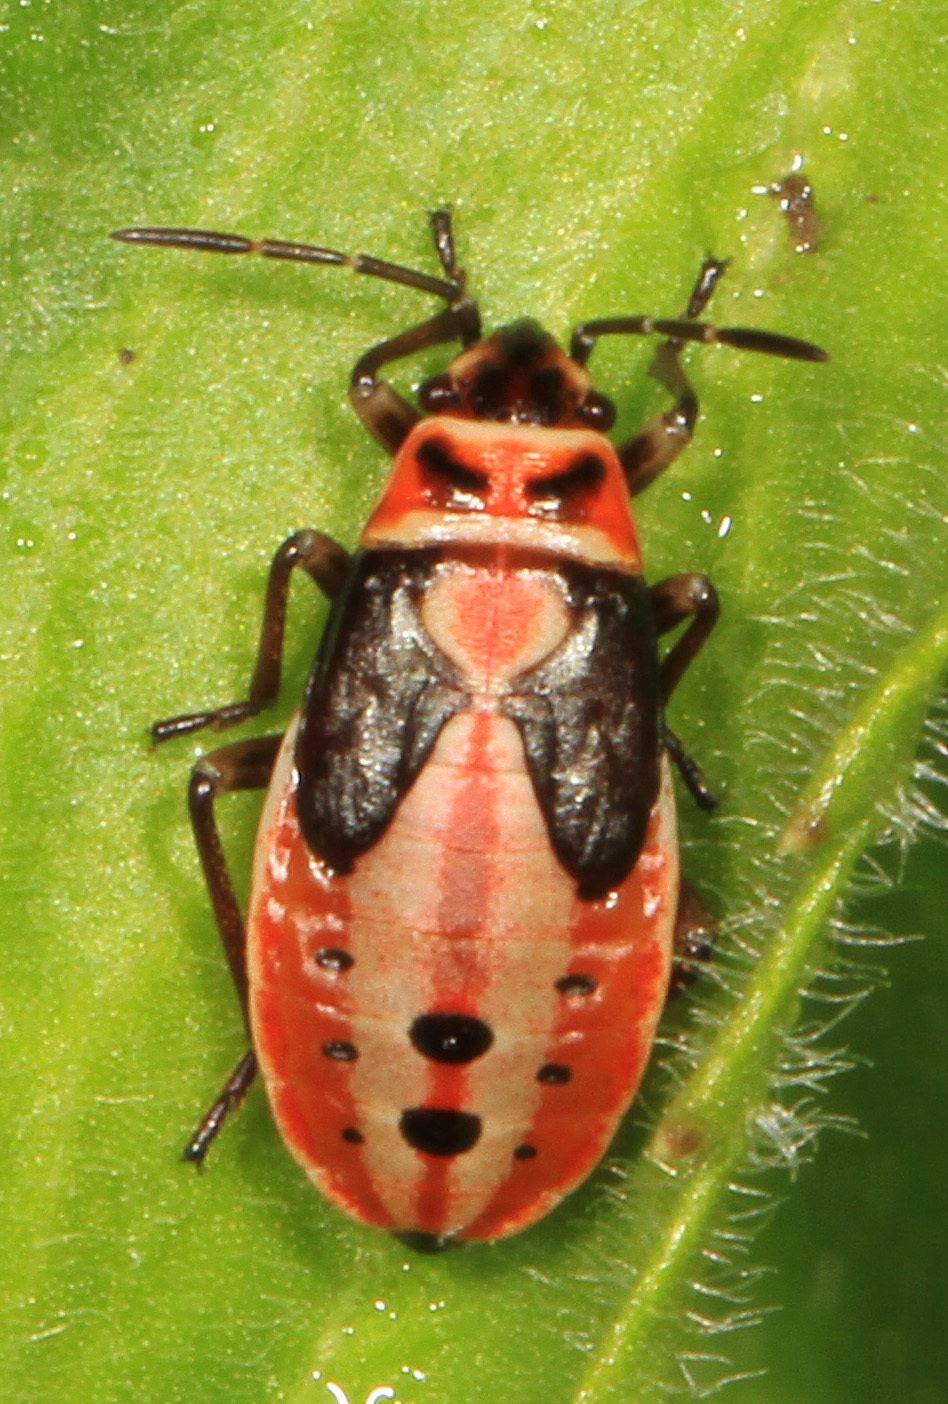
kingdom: Animalia
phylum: Arthropoda
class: Insecta
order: Hemiptera
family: Lygaeidae
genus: Lygaeus
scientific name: Lygaeus kalmii
